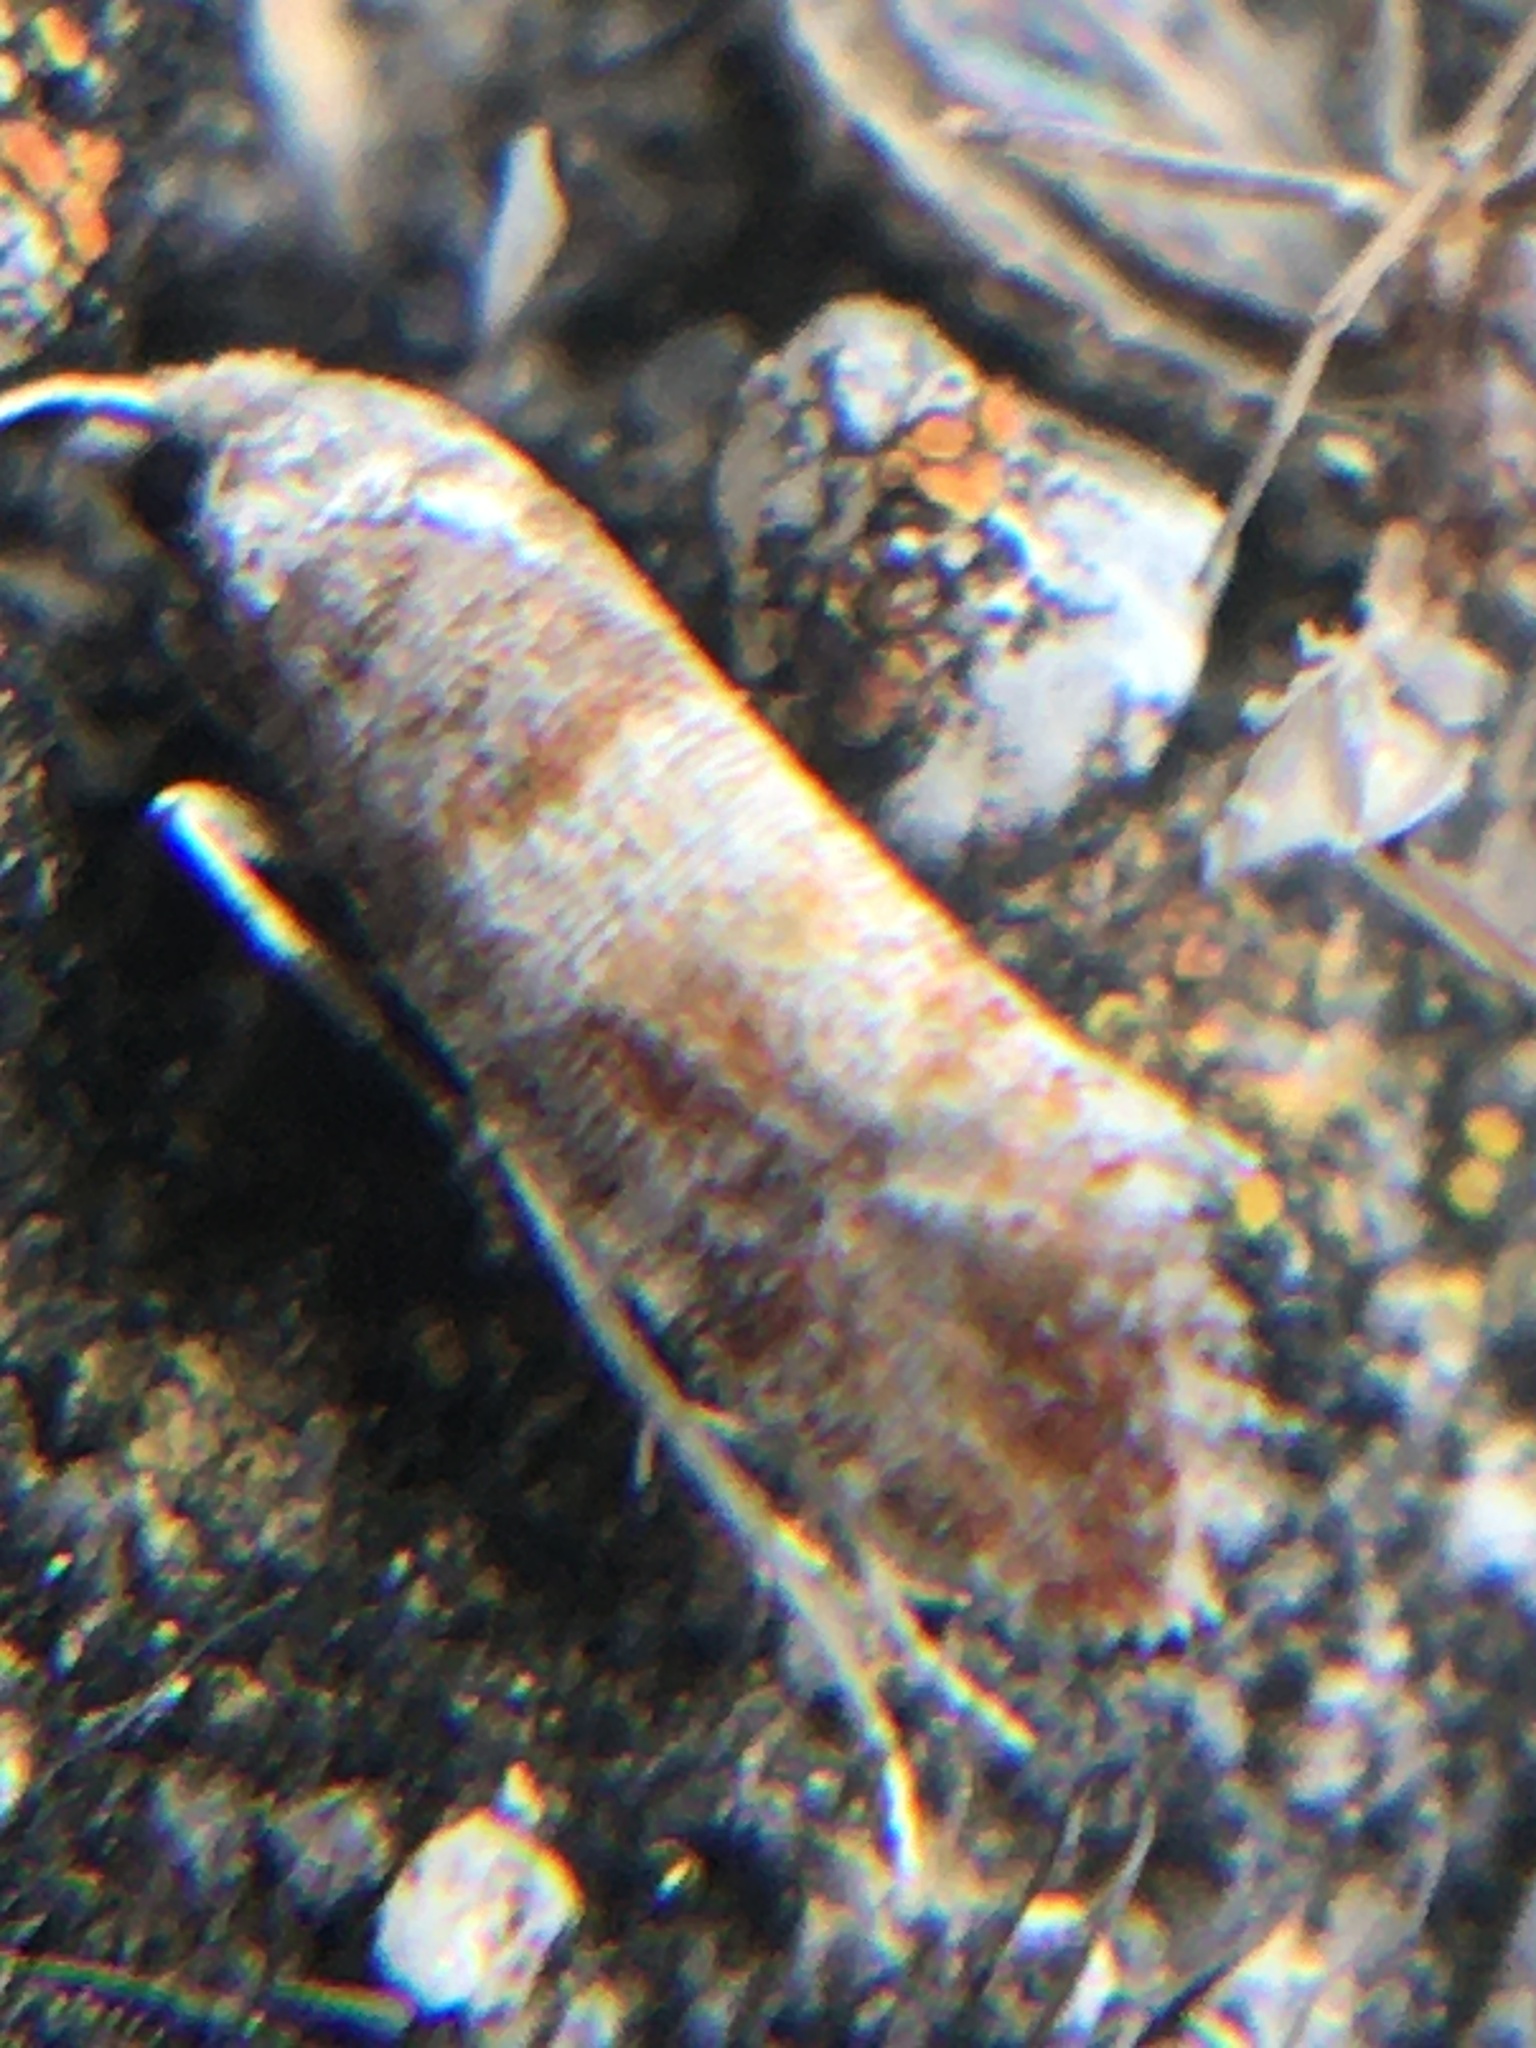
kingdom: Animalia
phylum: Arthropoda
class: Insecta
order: Lepidoptera
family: Tortricidae
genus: Rhyacionia
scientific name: Rhyacionia rigidana
